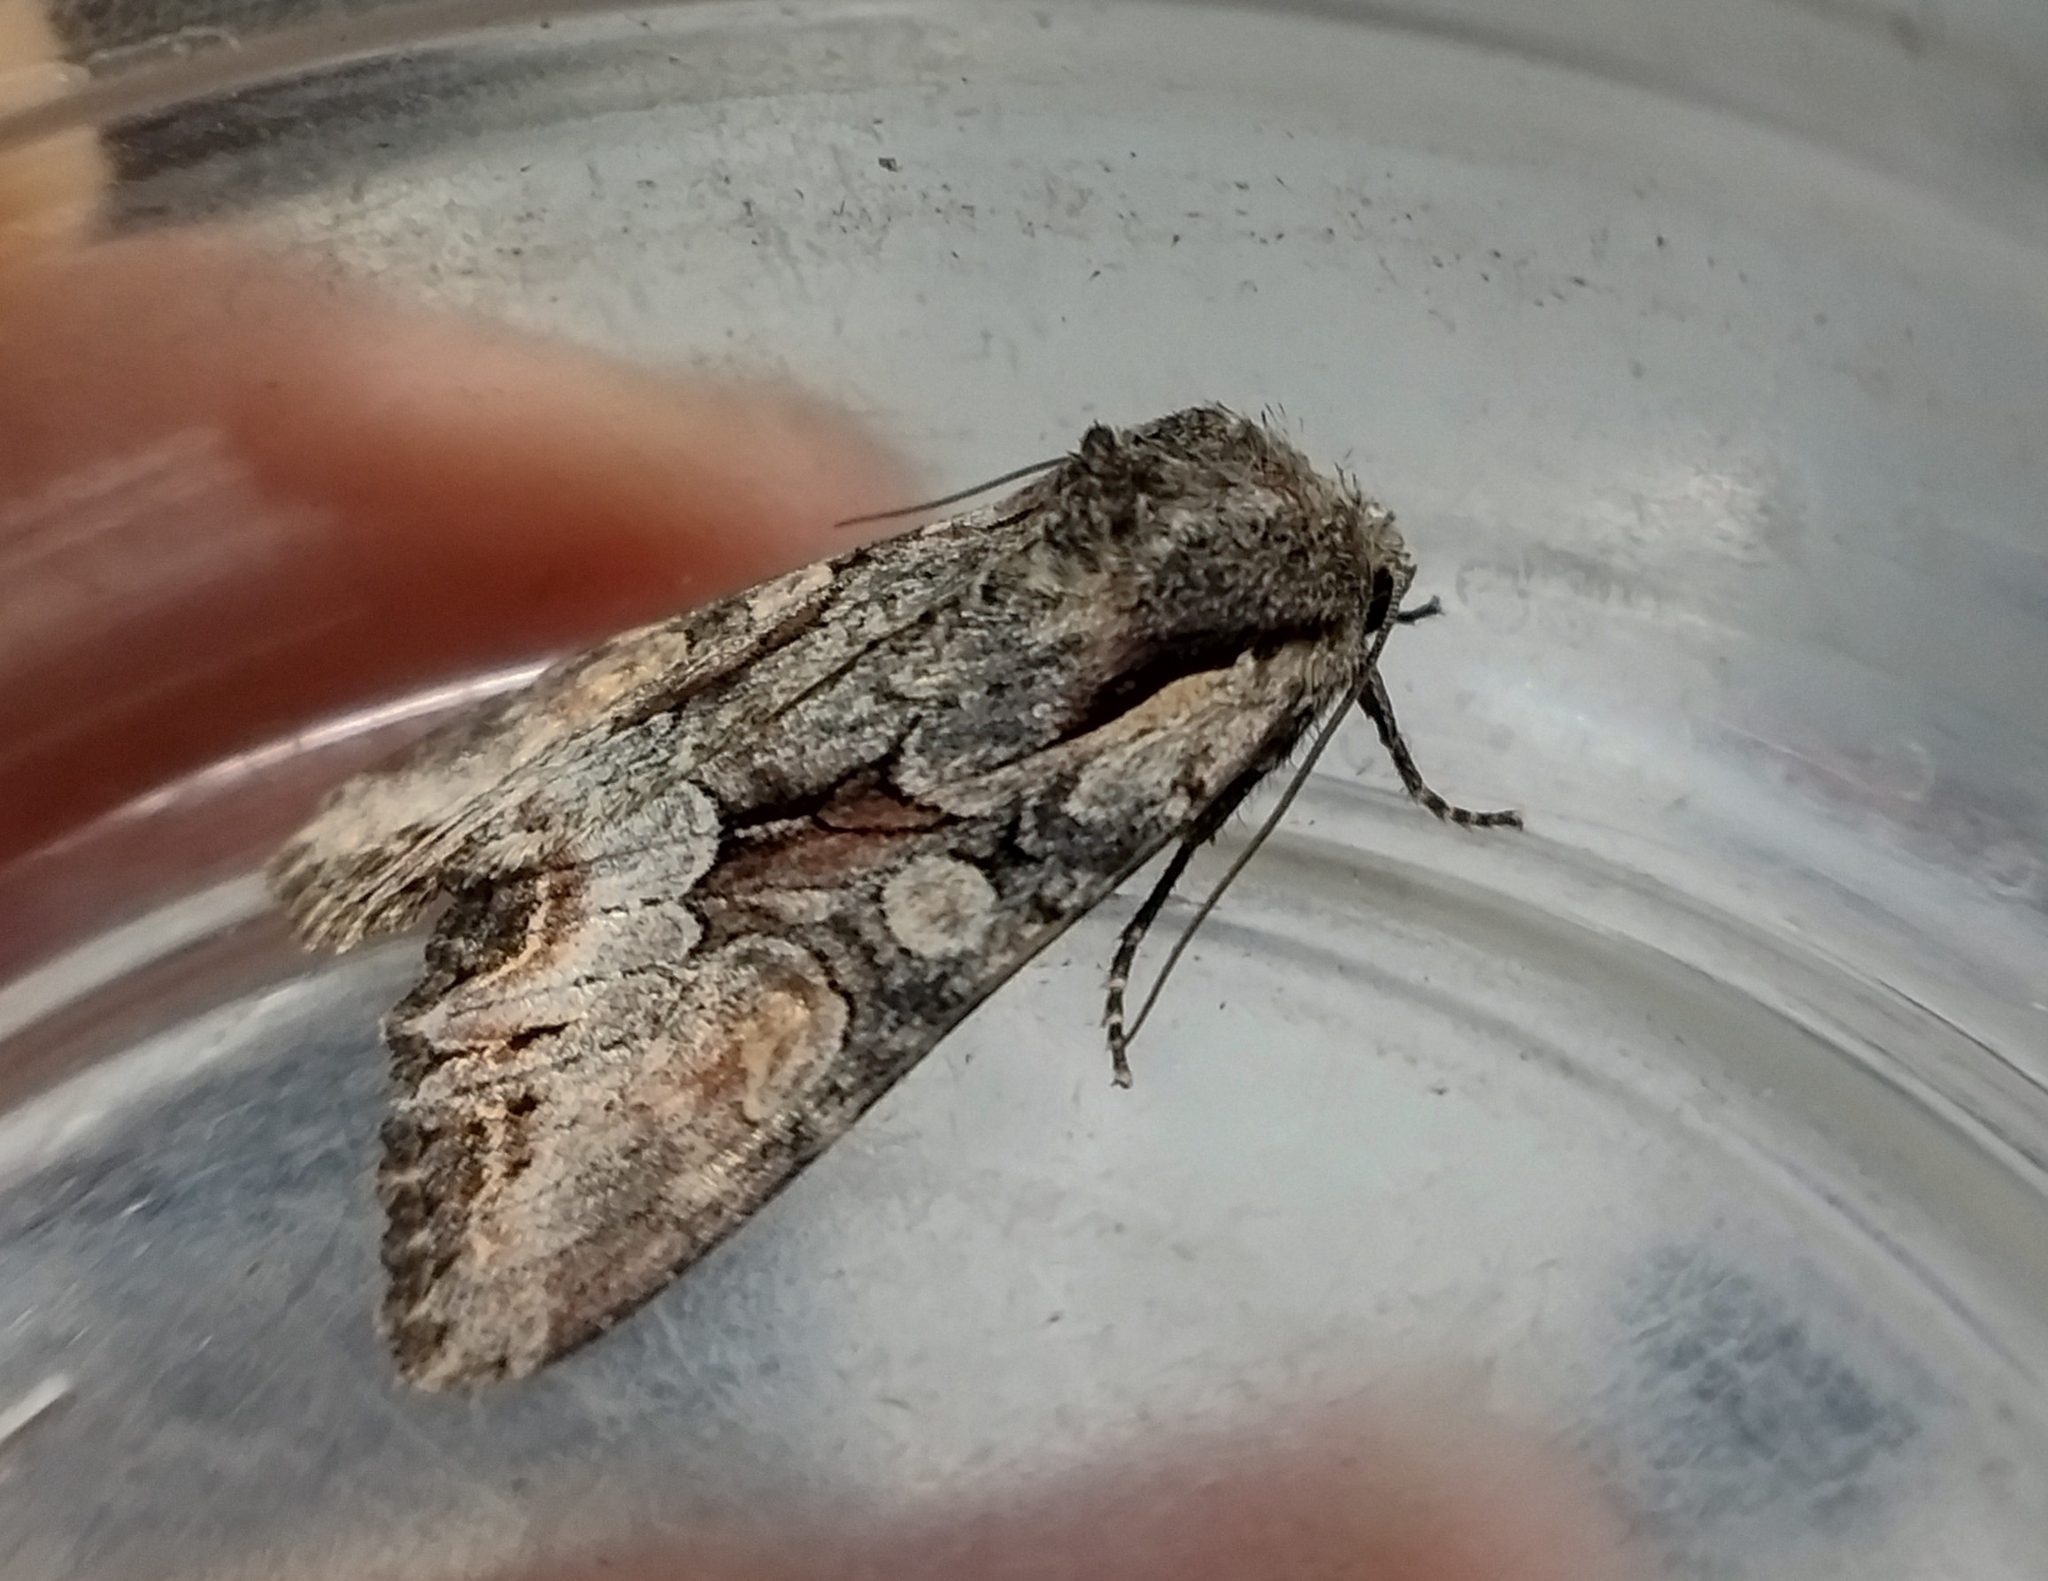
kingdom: Animalia
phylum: Arthropoda
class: Insecta
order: Lepidoptera
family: Noctuidae
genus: Lacanobia
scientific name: Lacanobia w-latinum
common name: Light brocade
